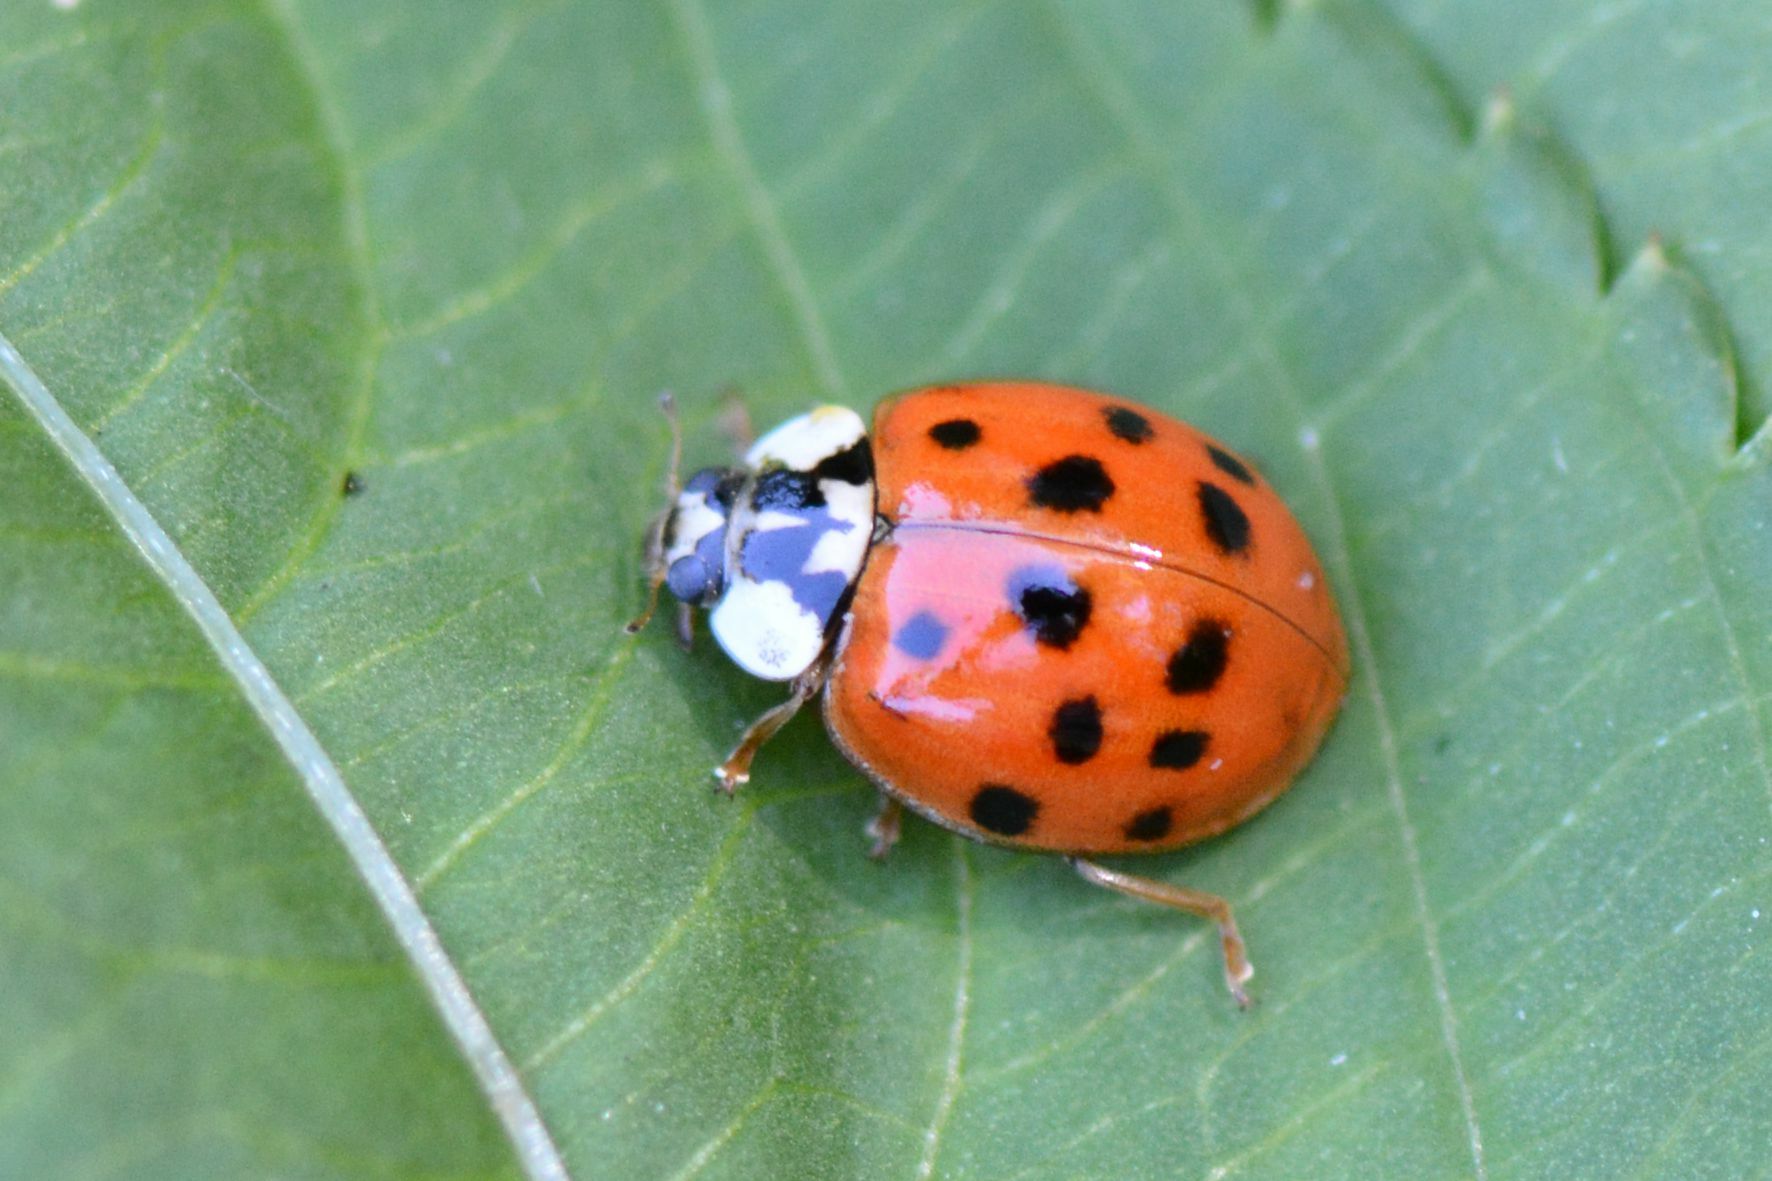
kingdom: Animalia
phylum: Arthropoda
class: Insecta
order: Coleoptera
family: Coccinellidae
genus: Harmonia
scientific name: Harmonia axyridis
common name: Harlequin ladybird
